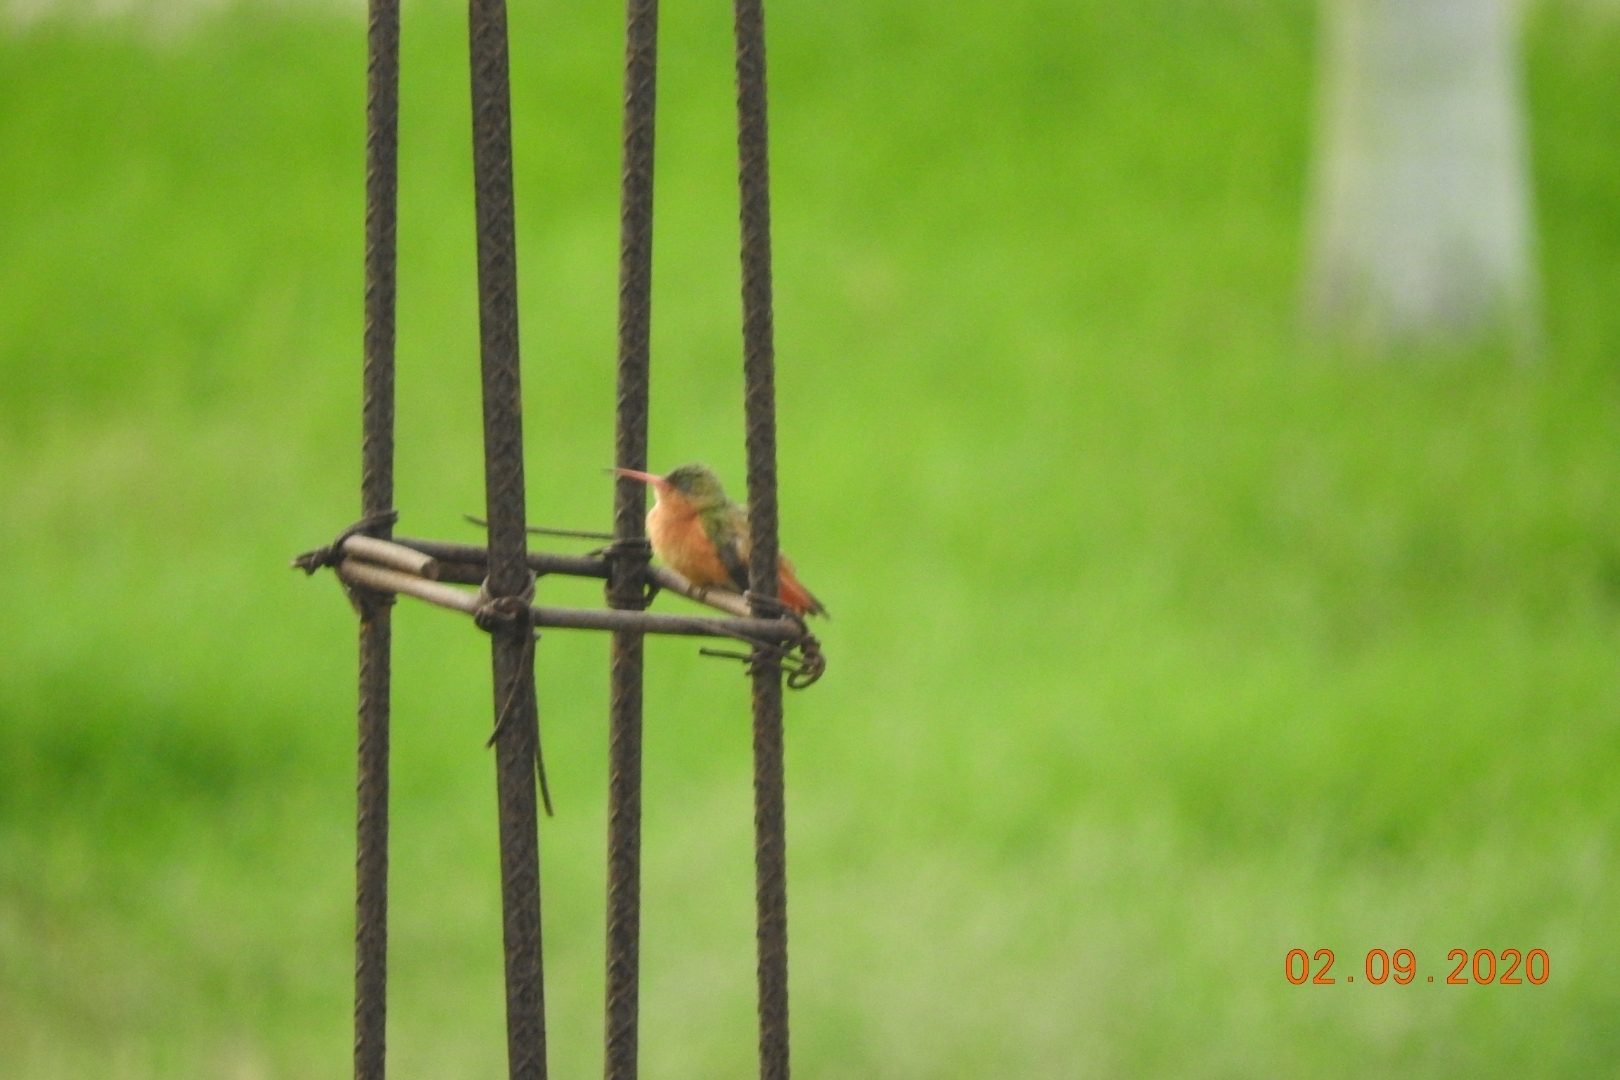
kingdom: Animalia
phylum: Chordata
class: Aves
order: Apodiformes
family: Trochilidae
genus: Amazilia
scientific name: Amazilia rutila
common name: Cinnamon hummingbird
